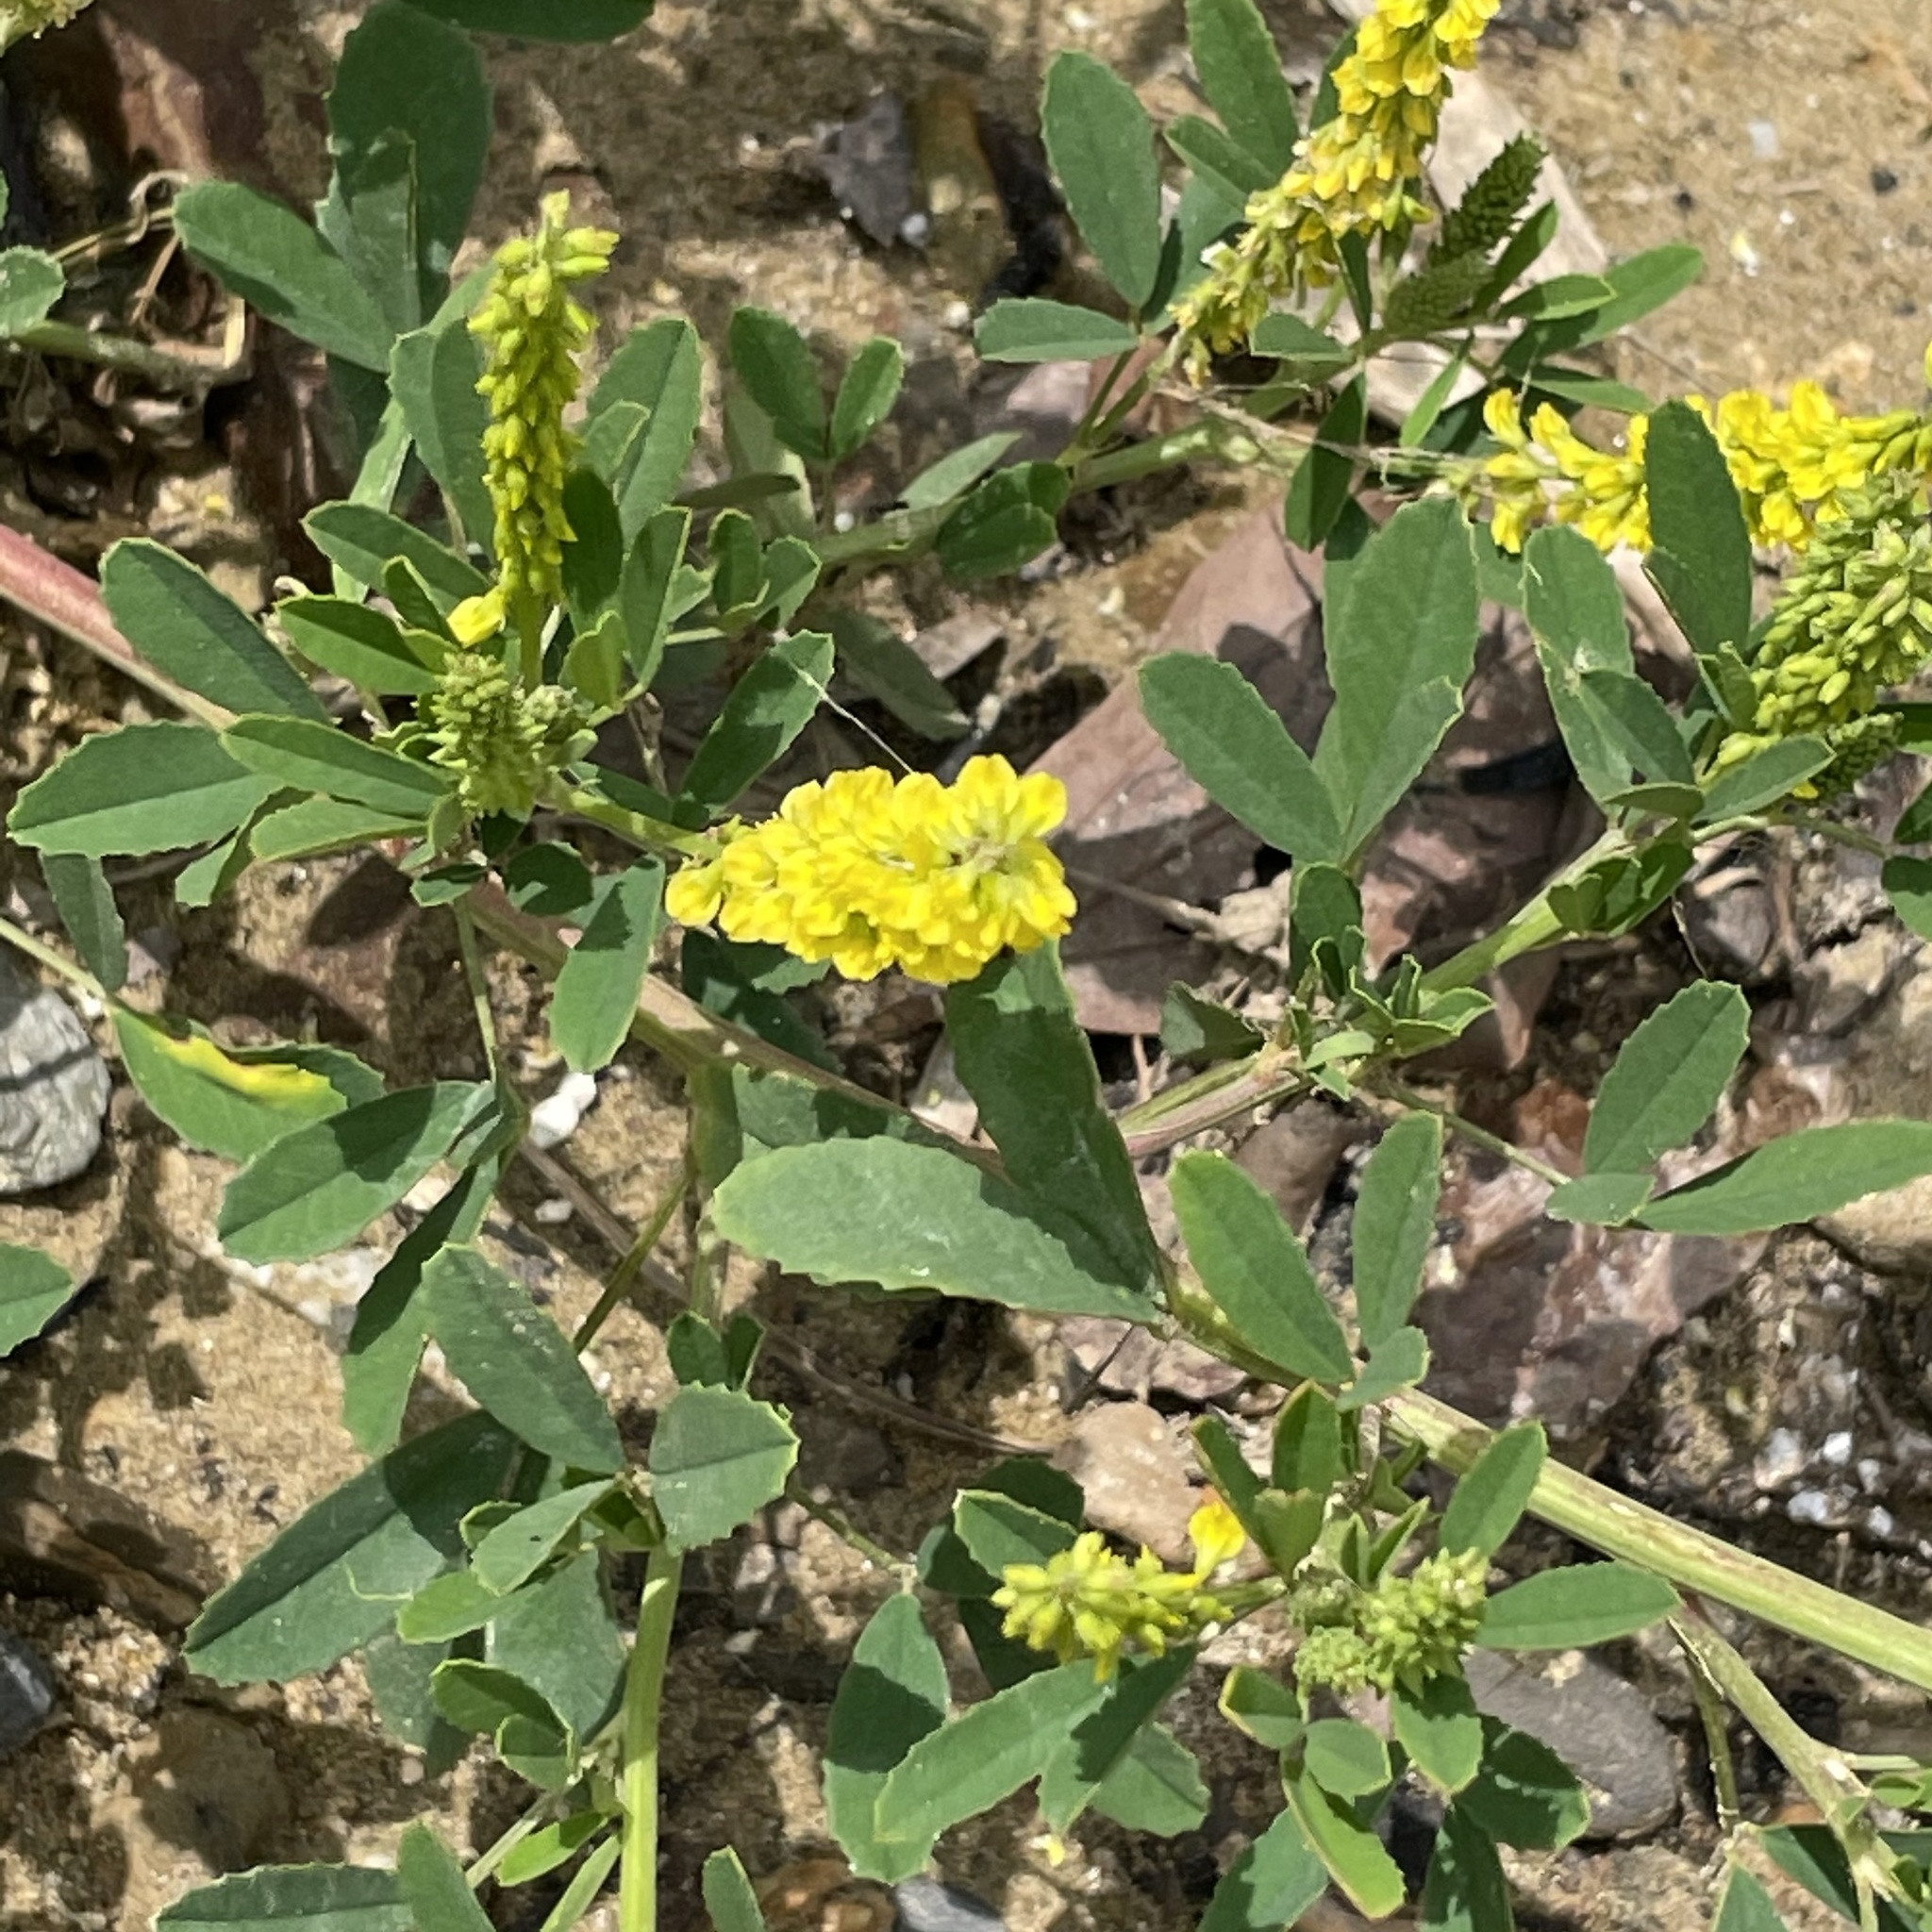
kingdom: Plantae
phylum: Tracheophyta
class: Magnoliopsida
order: Fabales
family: Fabaceae
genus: Melilotus
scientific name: Melilotus indicus
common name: Small melilot
